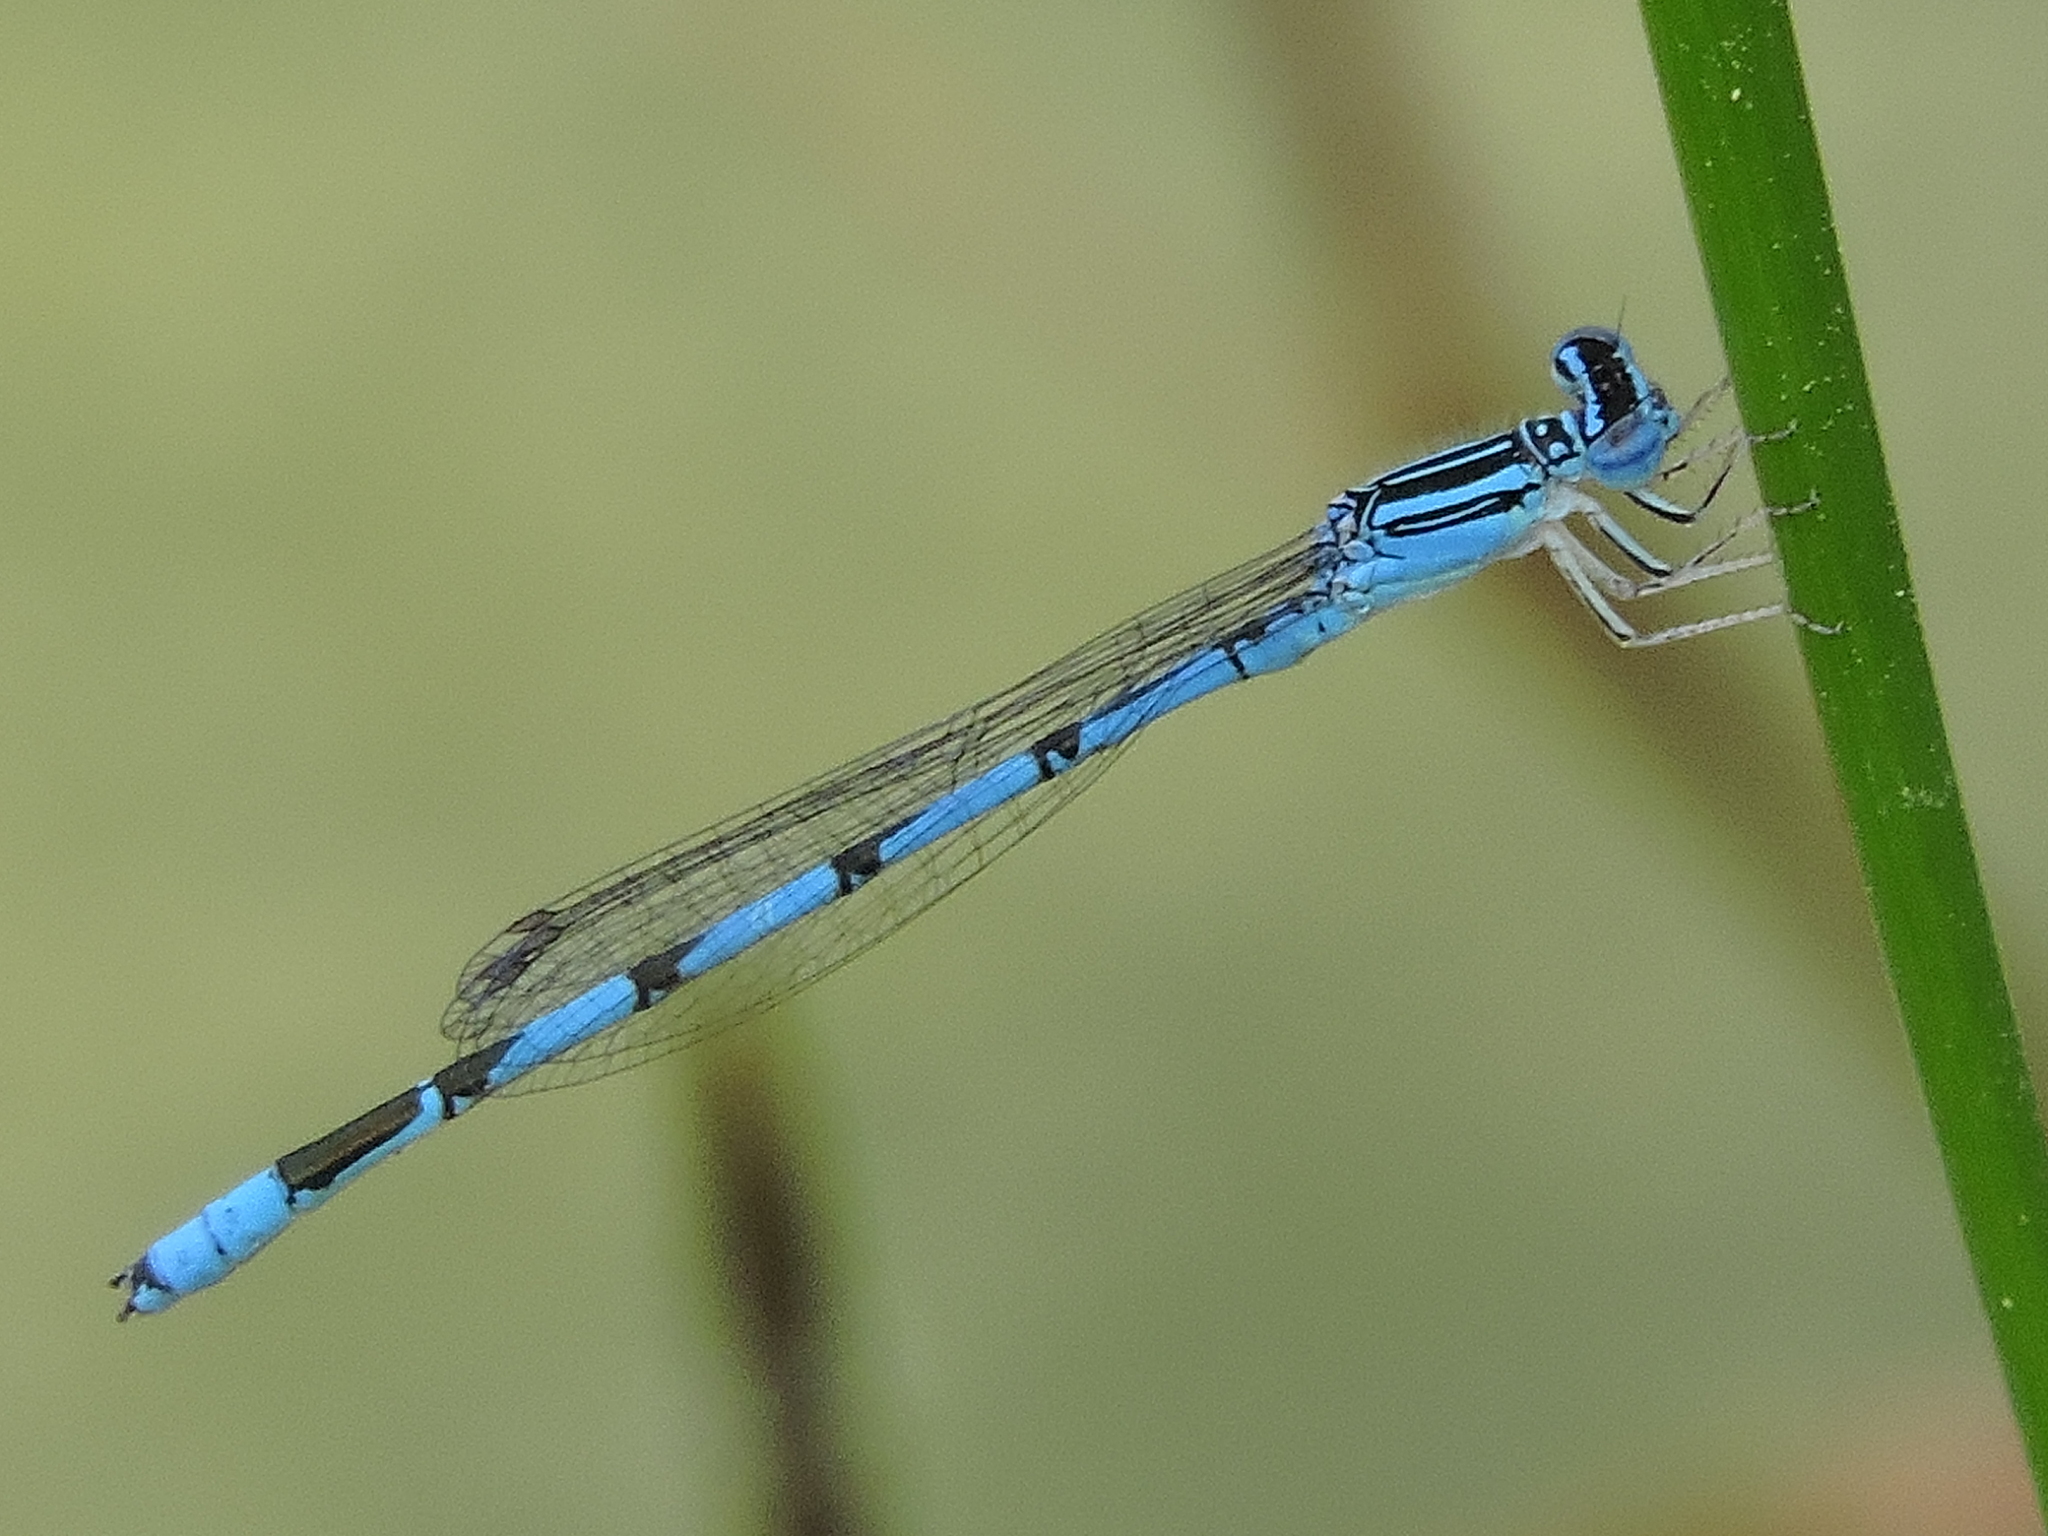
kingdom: Animalia
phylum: Arthropoda
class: Insecta
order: Odonata
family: Coenagrionidae
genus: Enallagma
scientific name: Enallagma basidens
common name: Double-striped bluet
